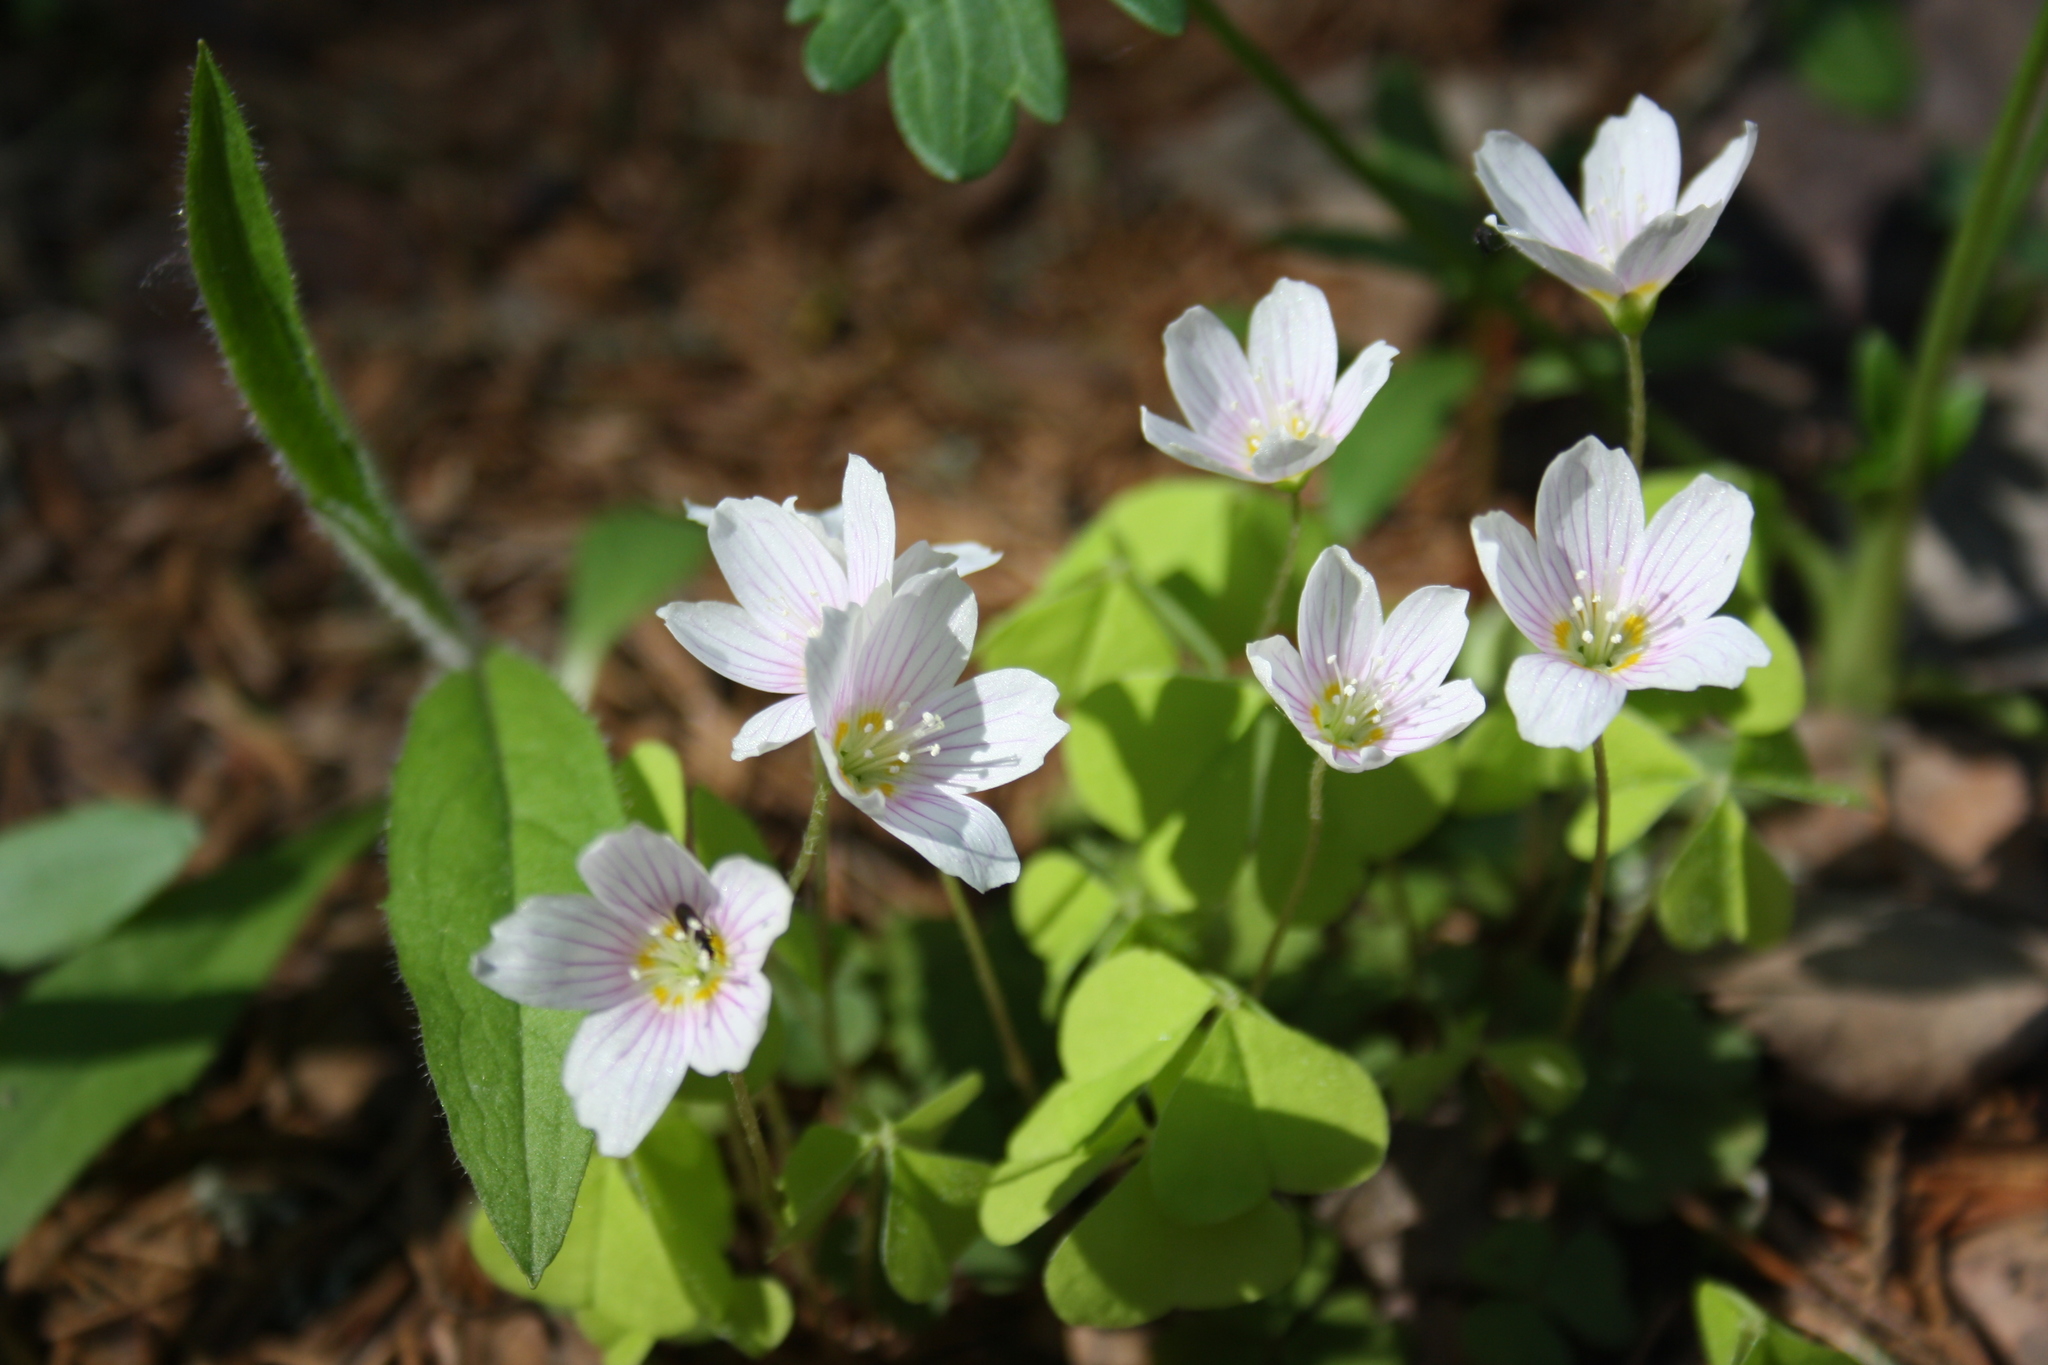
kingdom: Plantae
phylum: Tracheophyta
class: Magnoliopsida
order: Oxalidales
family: Oxalidaceae
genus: Oxalis
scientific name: Oxalis acetosella
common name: Wood-sorrel
